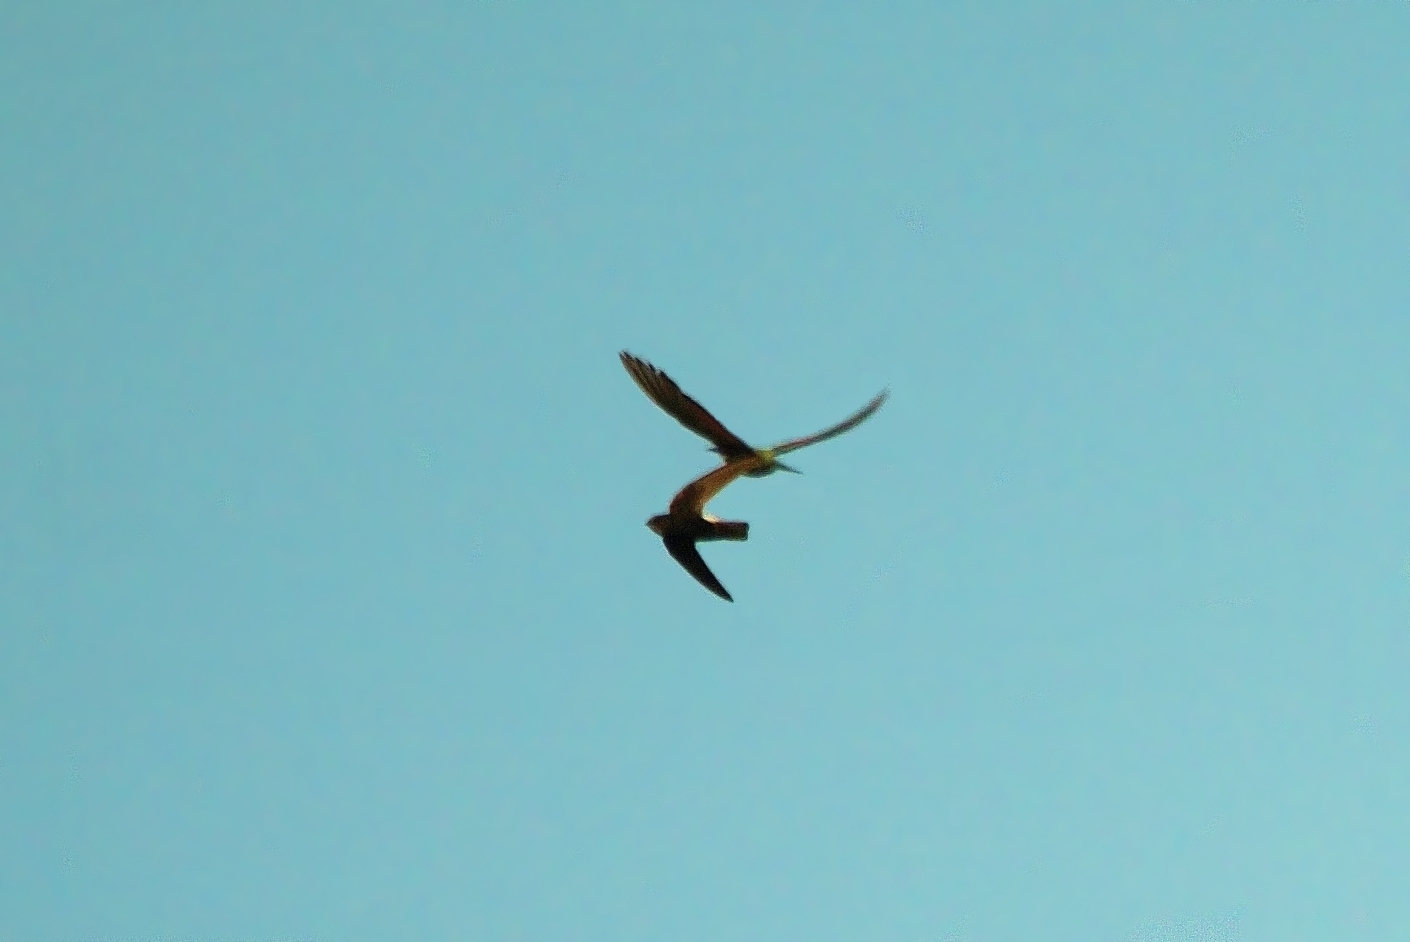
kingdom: Animalia
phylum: Chordata
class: Aves
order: Apodiformes
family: Apodidae
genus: Apus
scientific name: Apus affinis
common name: Little swift
